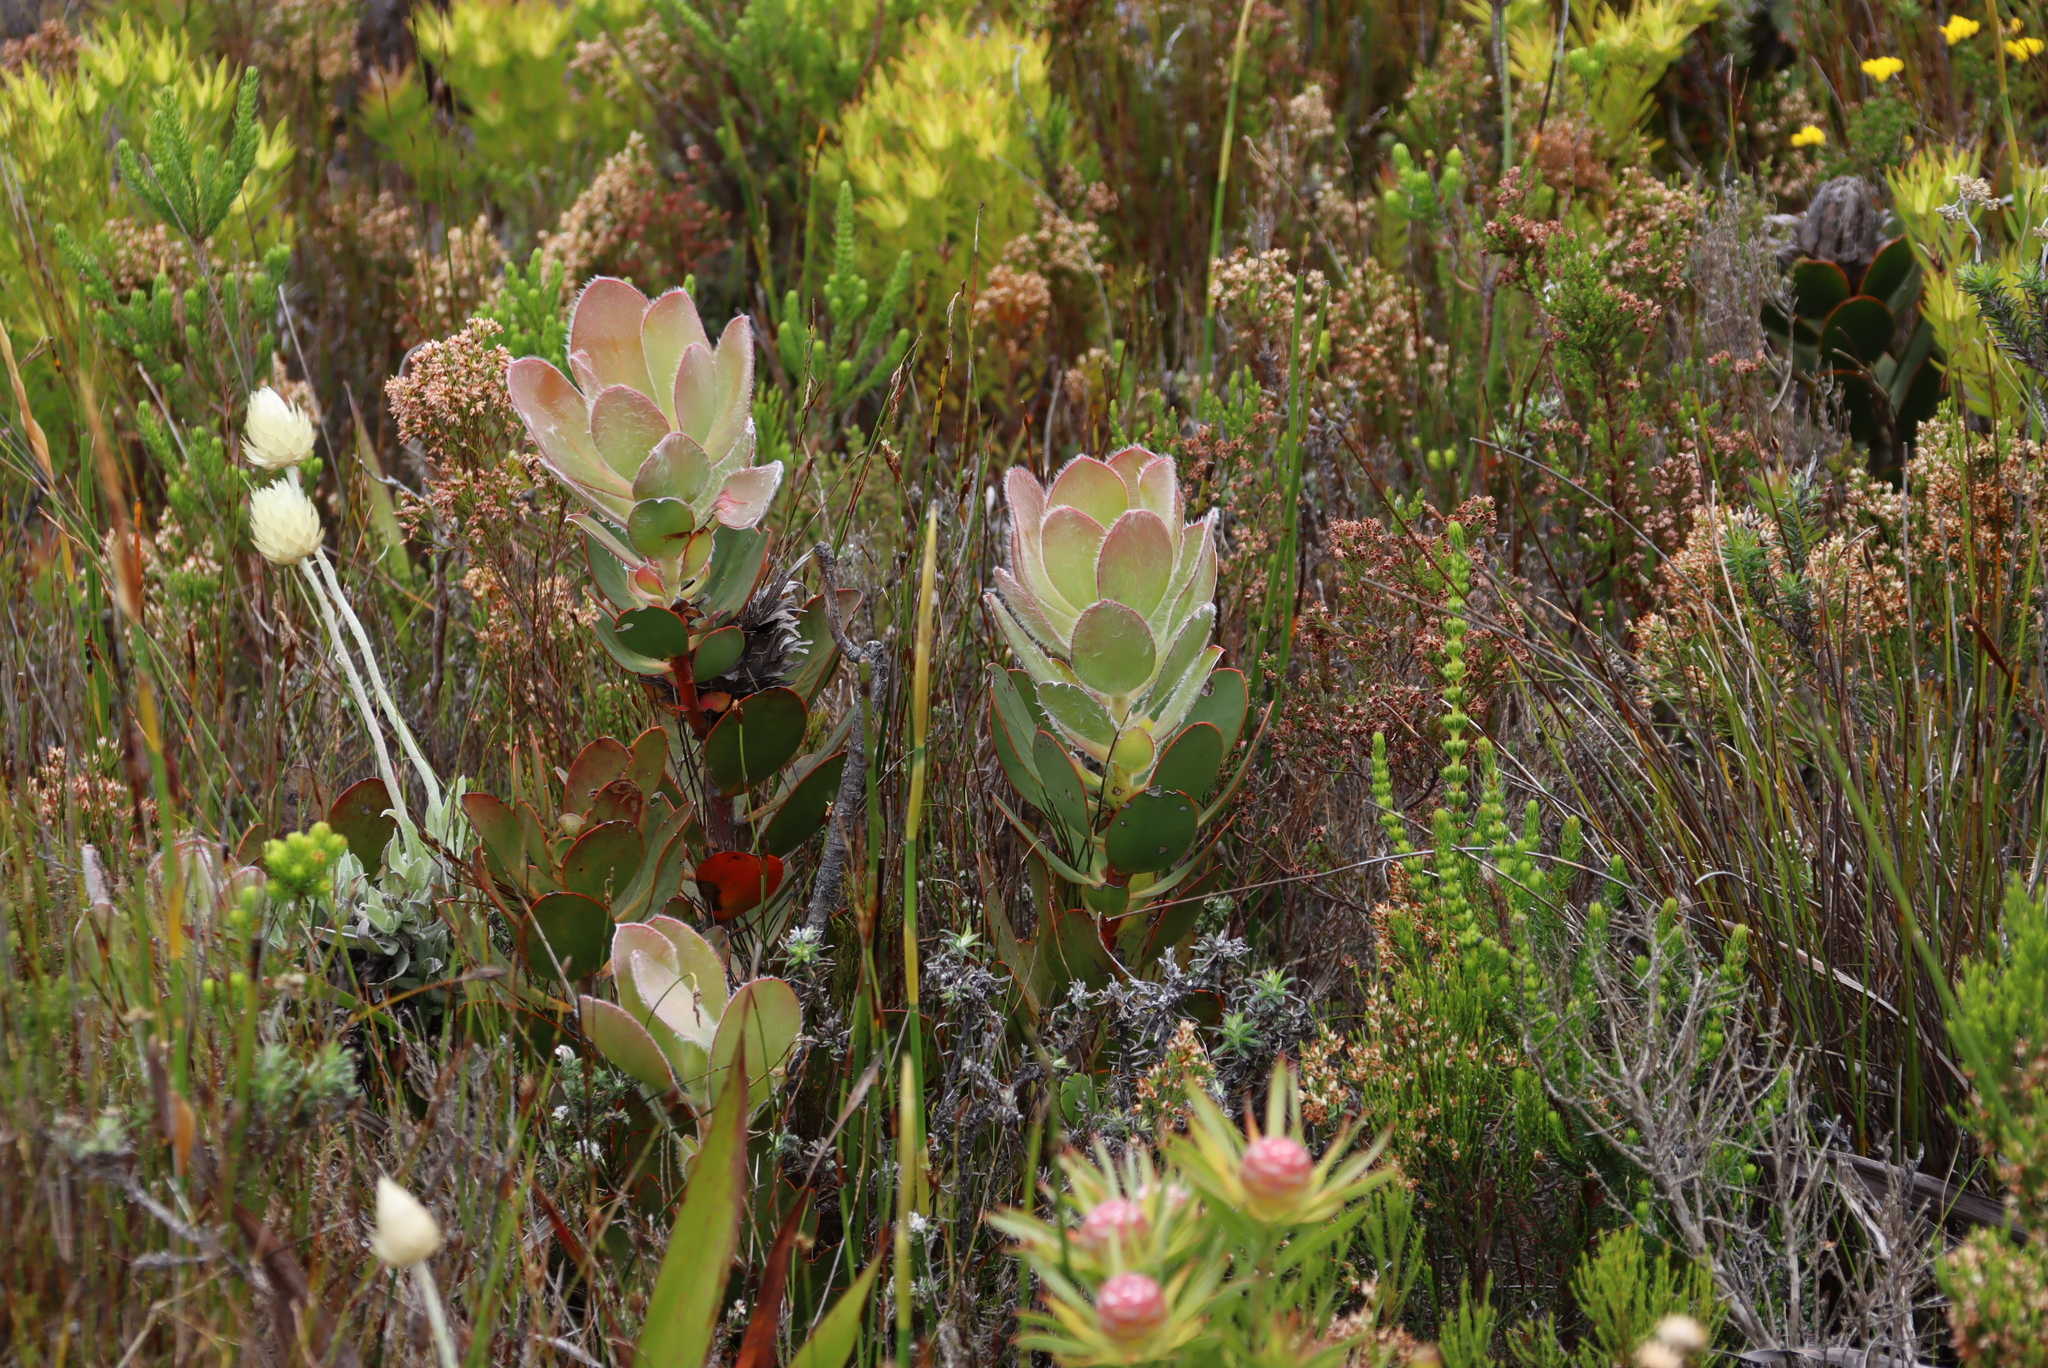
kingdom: Plantae
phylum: Tracheophyta
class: Magnoliopsida
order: Proteales
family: Proteaceae
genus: Protea
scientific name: Protea speciosa
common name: Brown-beard sugarbush
